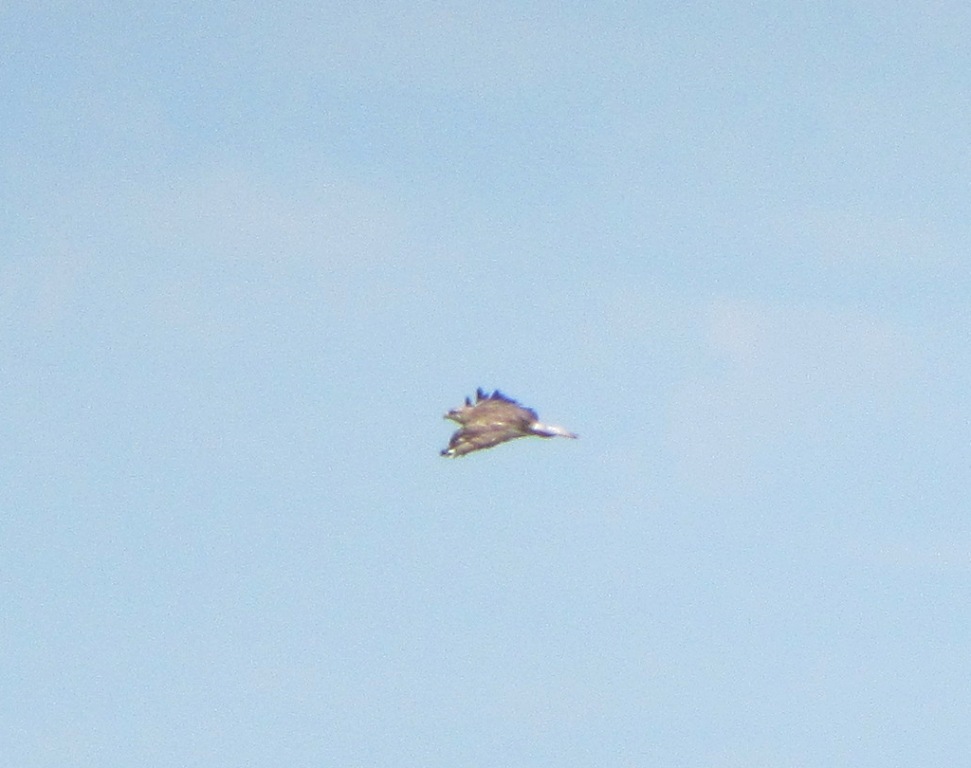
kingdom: Animalia
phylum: Chordata
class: Aves
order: Accipitriformes
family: Accipitridae
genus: Buteo
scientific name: Buteo buteo
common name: Common buzzard
